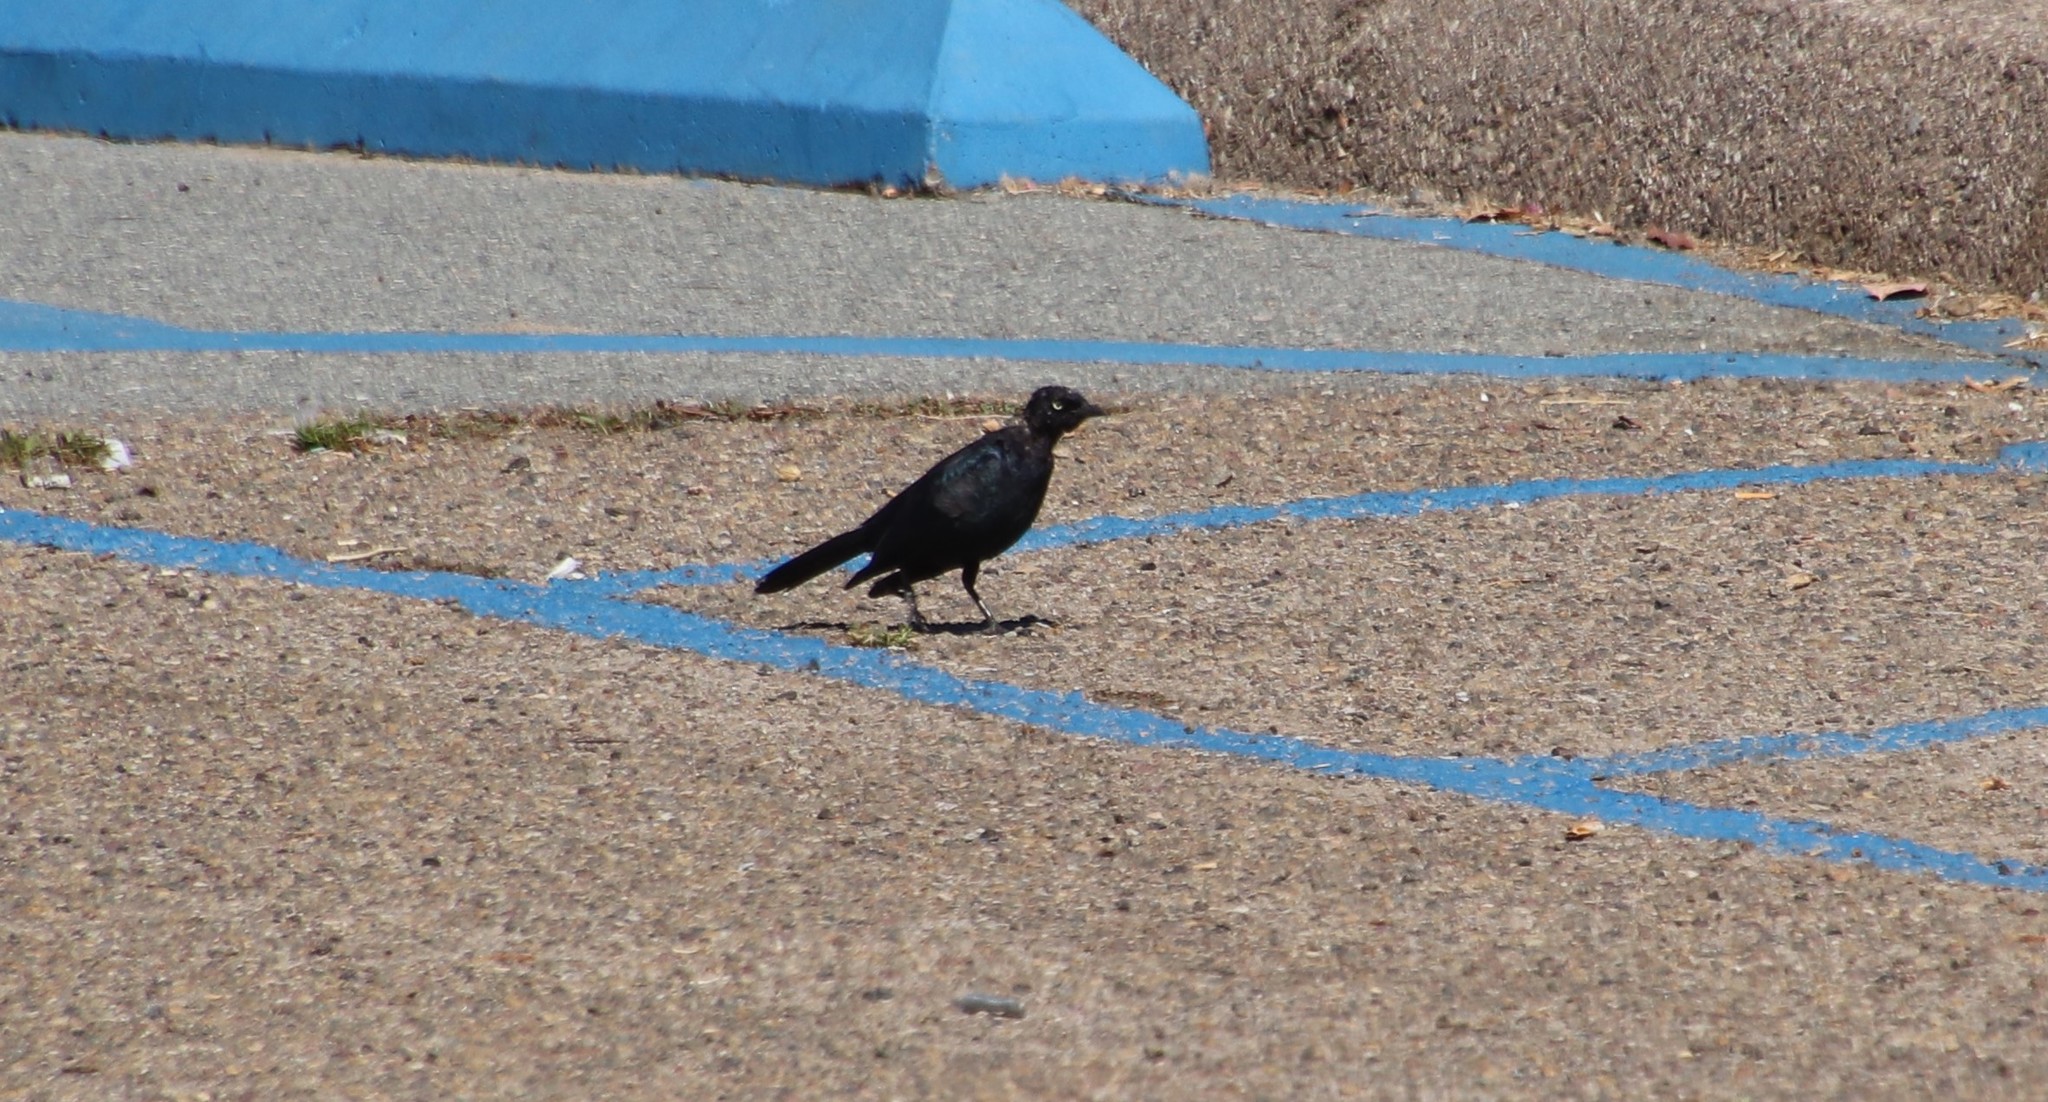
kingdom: Animalia
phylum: Chordata
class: Aves
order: Passeriformes
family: Icteridae
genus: Euphagus
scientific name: Euphagus cyanocephalus
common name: Brewer's blackbird
